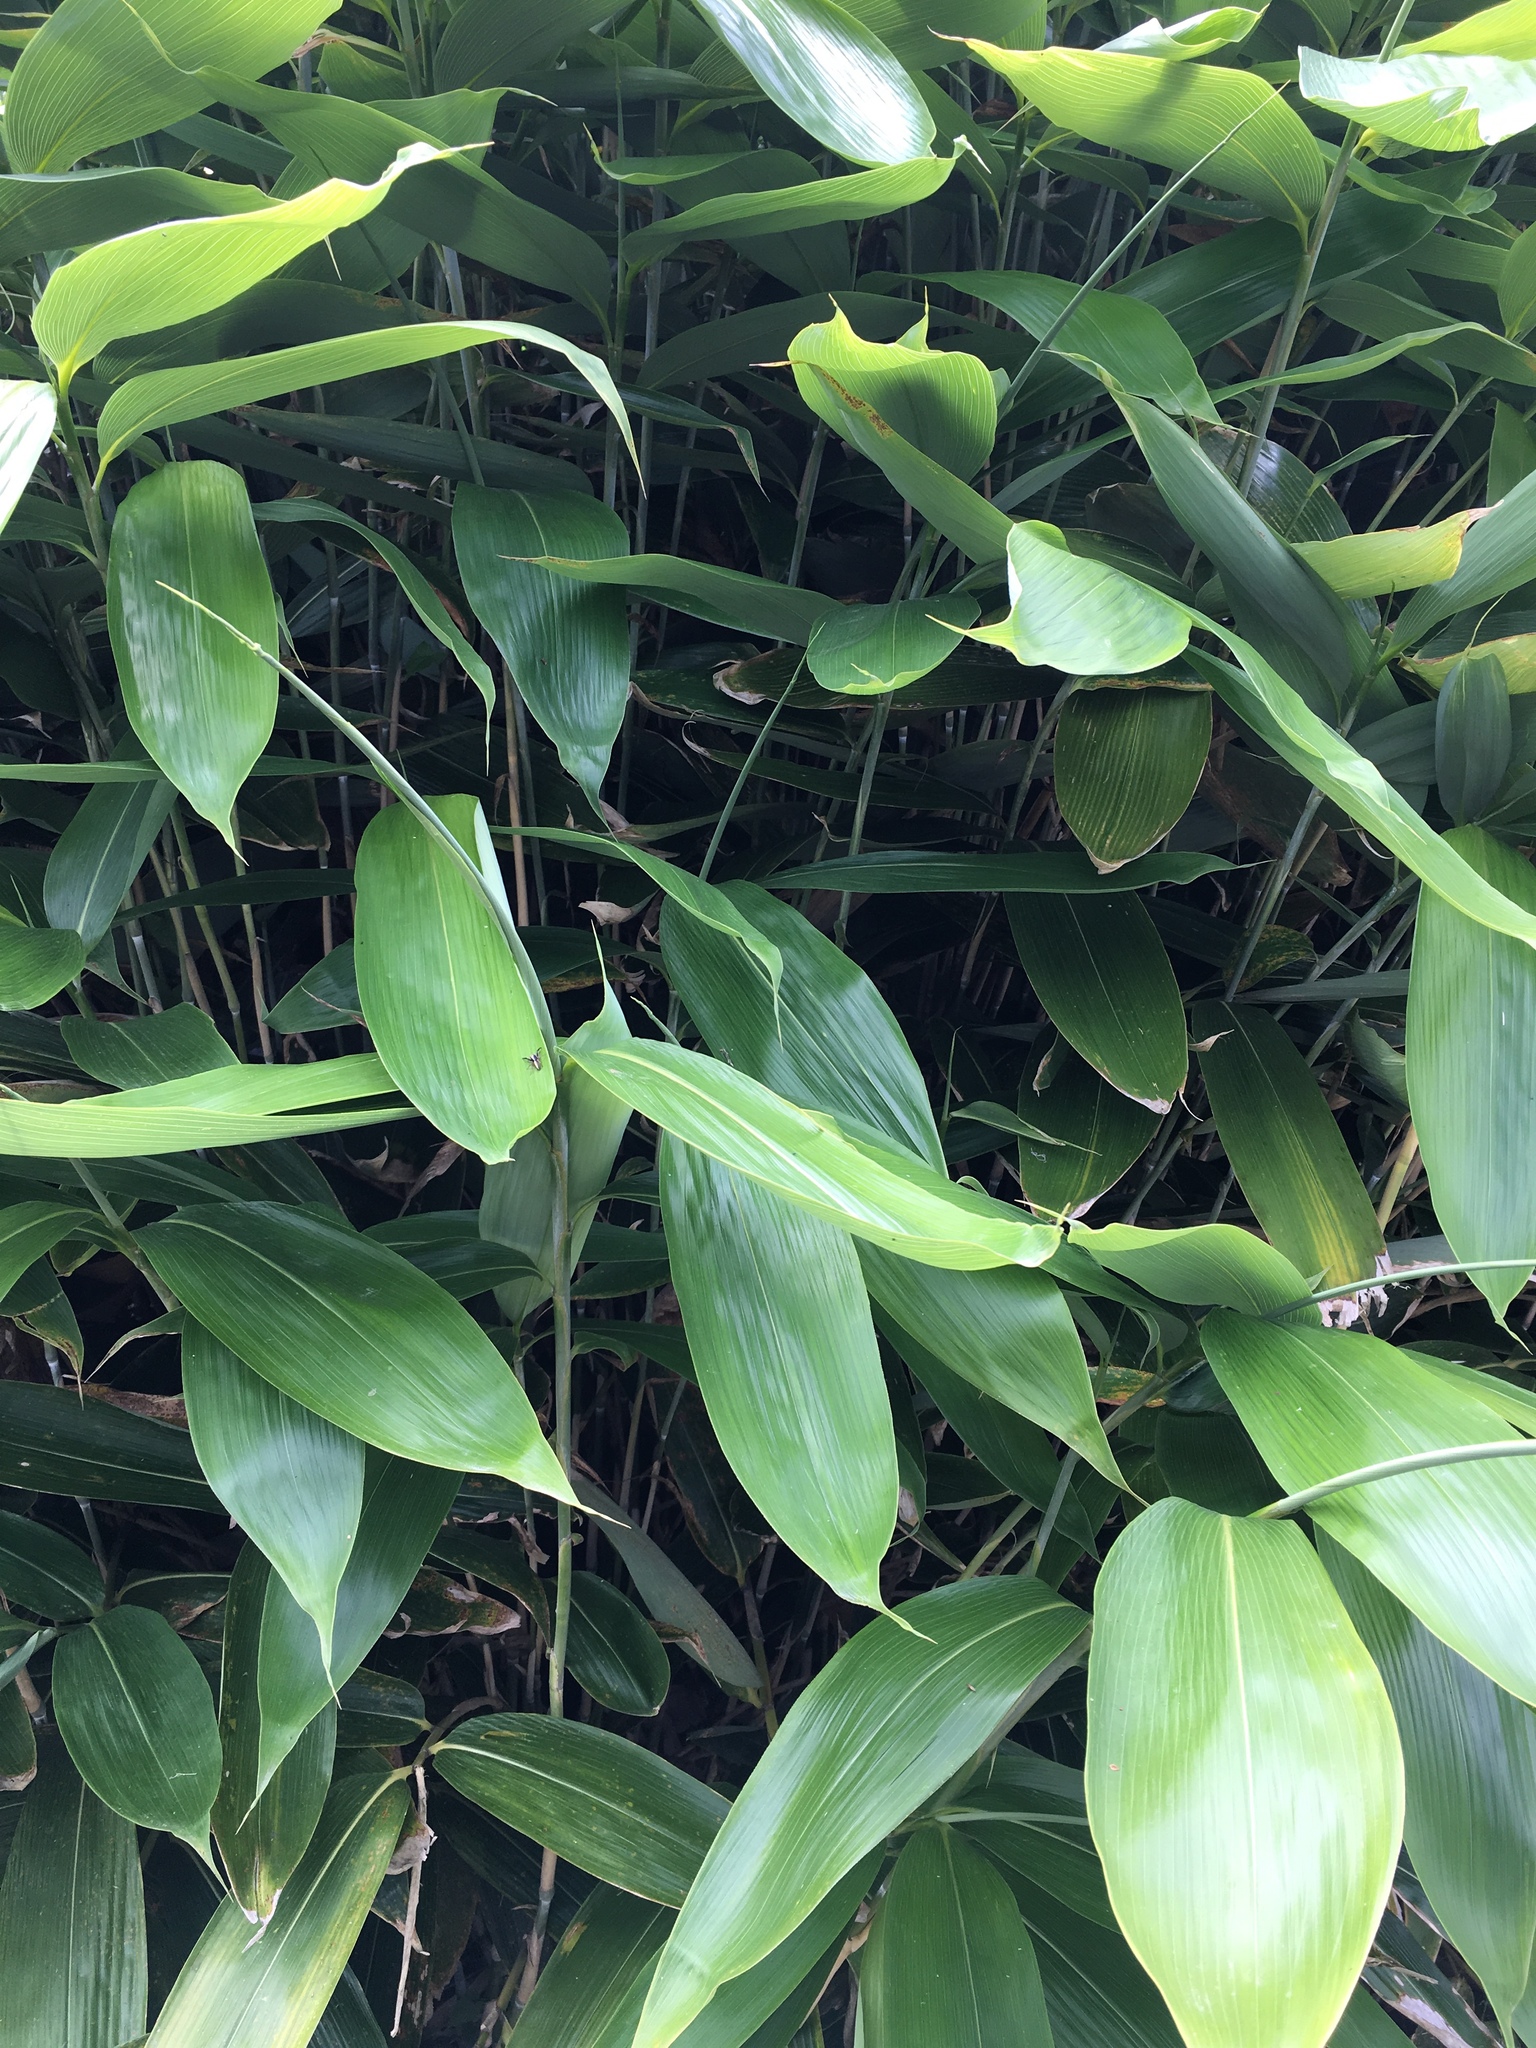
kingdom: Plantae
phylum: Tracheophyta
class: Liliopsida
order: Poales
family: Poaceae
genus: Sasa
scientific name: Sasa palmata
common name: Broad-leaved bamboo
